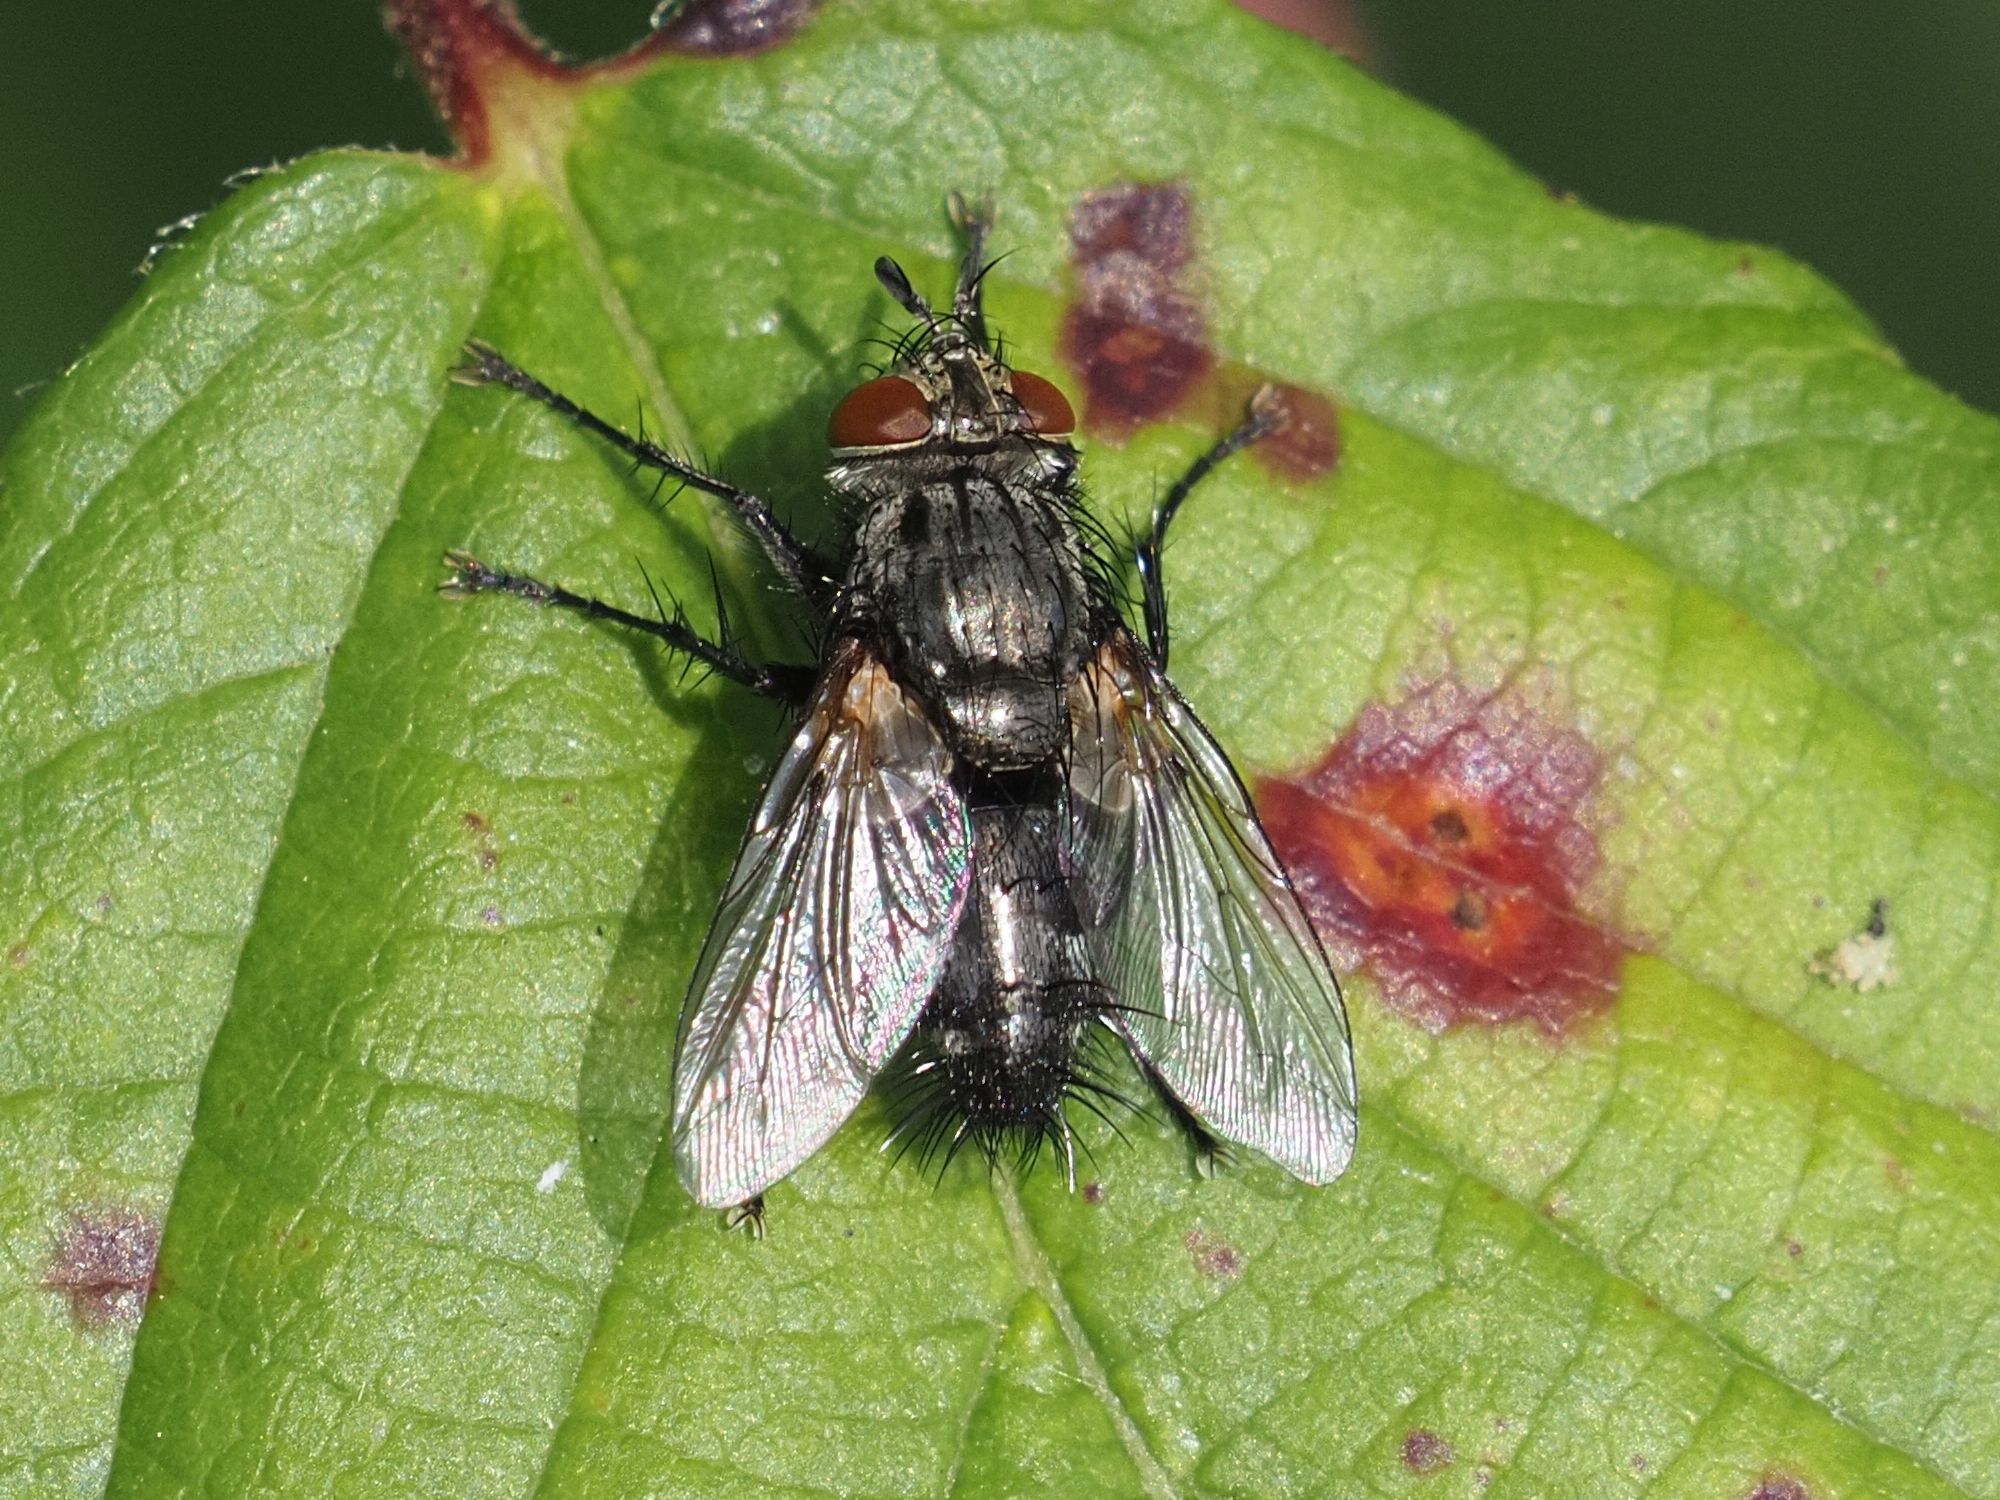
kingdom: Animalia
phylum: Arthropoda
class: Insecta
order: Diptera
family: Tachinidae
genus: Voria
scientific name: Voria ruralis
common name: Parasitic fly
